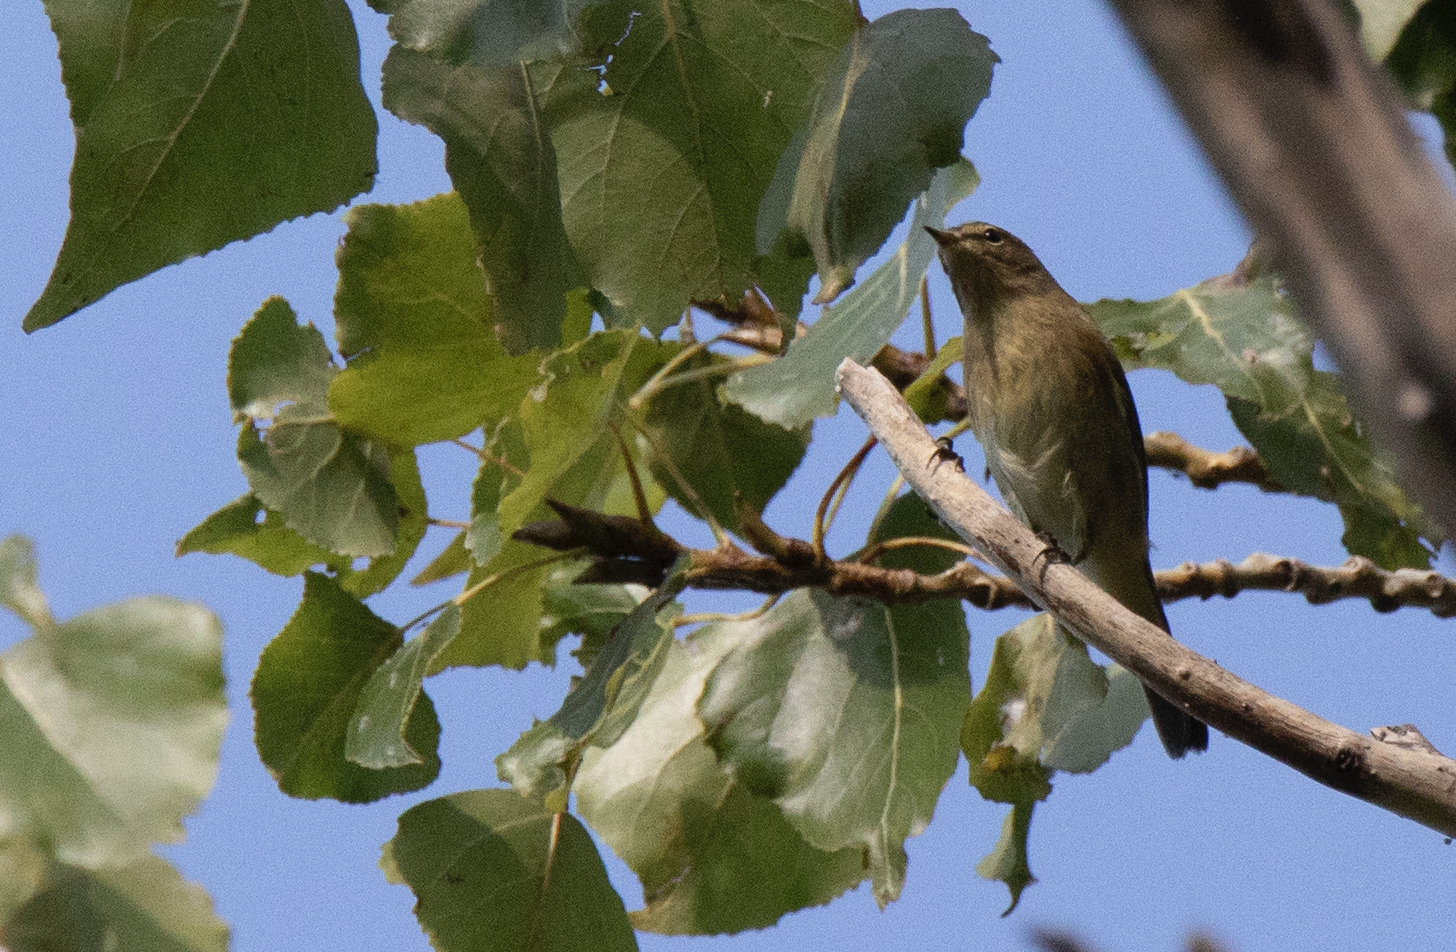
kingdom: Animalia
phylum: Chordata
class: Aves
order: Passeriformes
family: Phylloscopidae
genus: Phylloscopus
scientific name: Phylloscopus collybita
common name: Common chiffchaff
